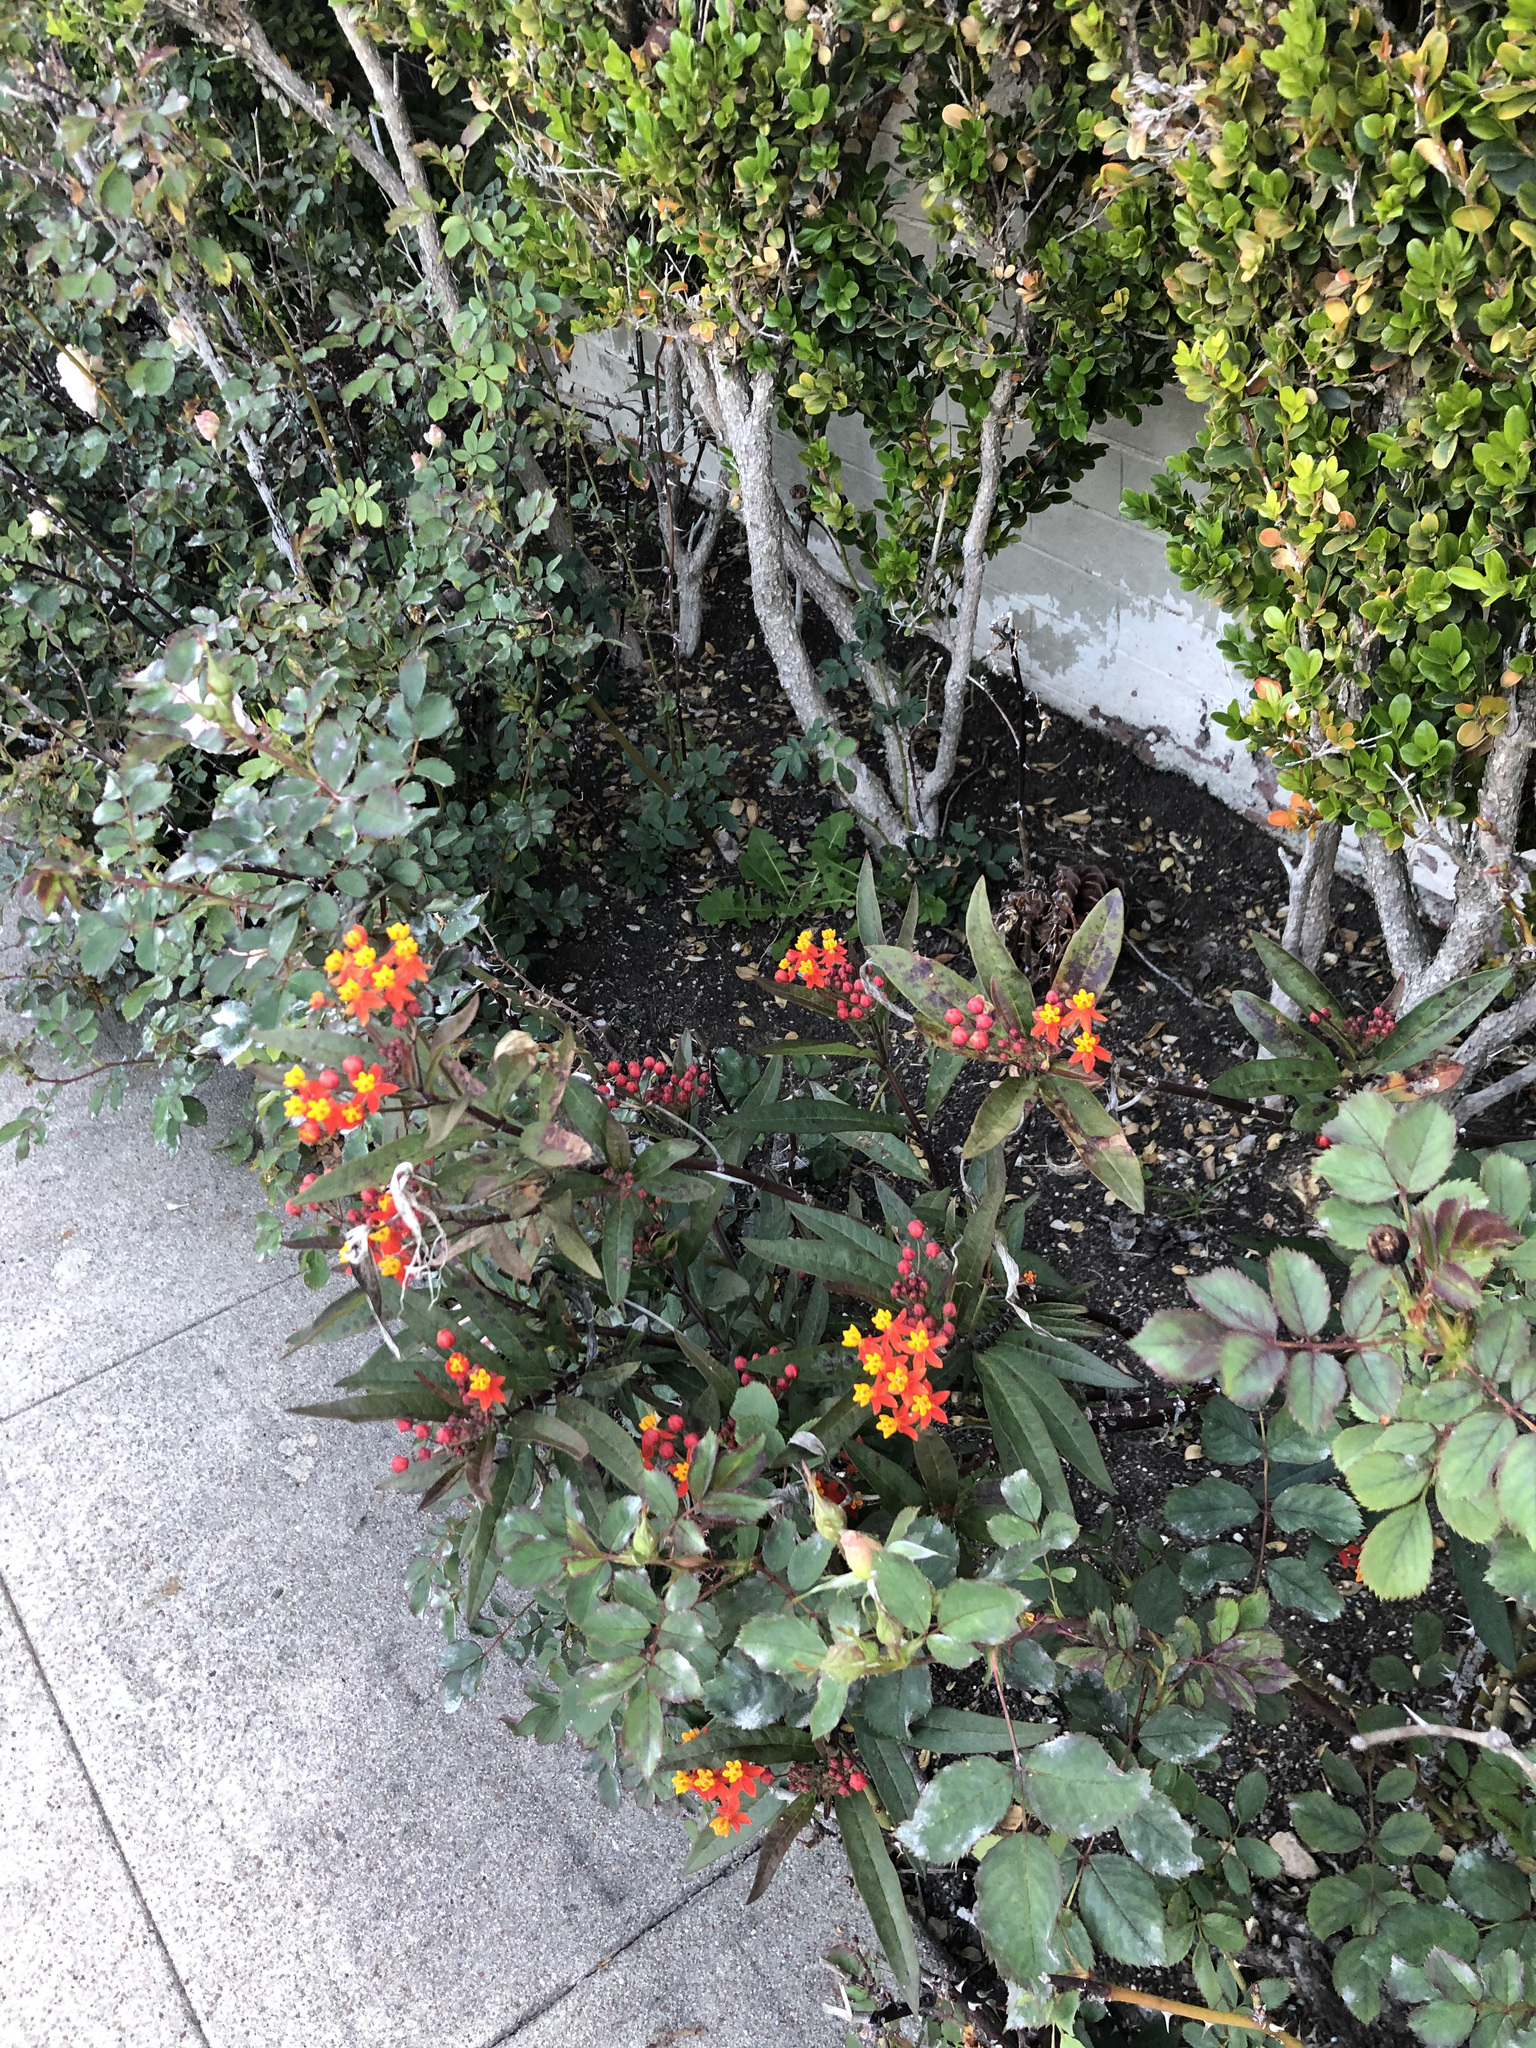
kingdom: Plantae
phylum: Tracheophyta
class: Magnoliopsida
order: Gentianales
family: Apocynaceae
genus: Asclepias
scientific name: Asclepias curassavica
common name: Bloodflower
